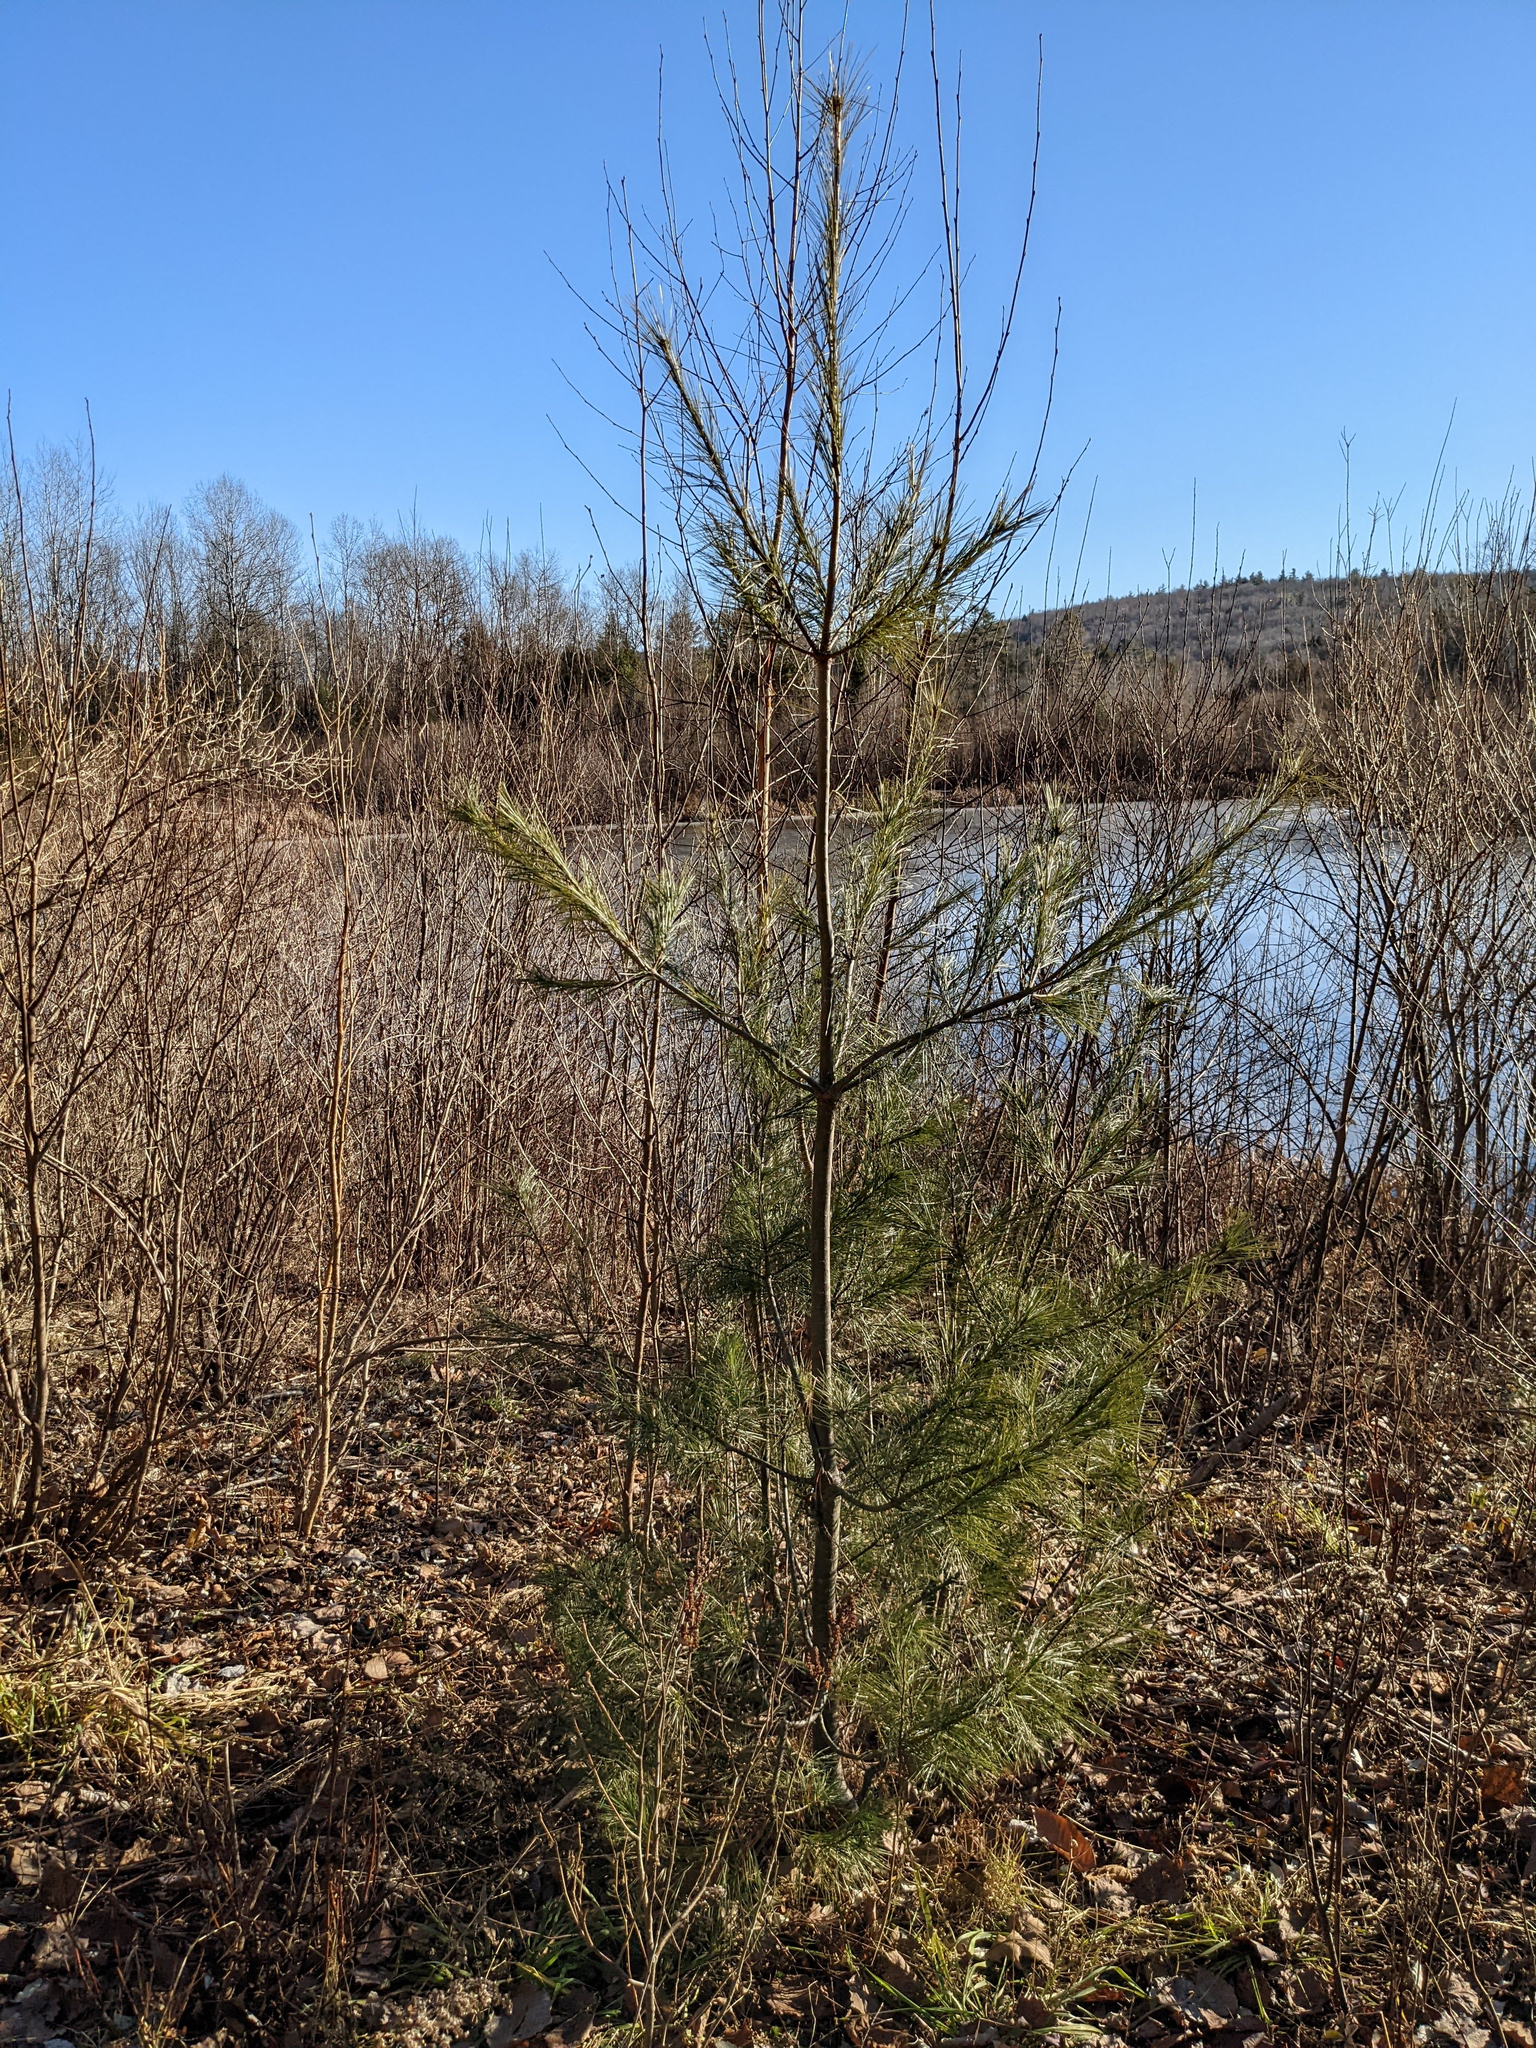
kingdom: Plantae
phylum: Tracheophyta
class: Pinopsida
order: Pinales
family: Pinaceae
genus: Pinus
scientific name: Pinus strobus
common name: Weymouth pine
